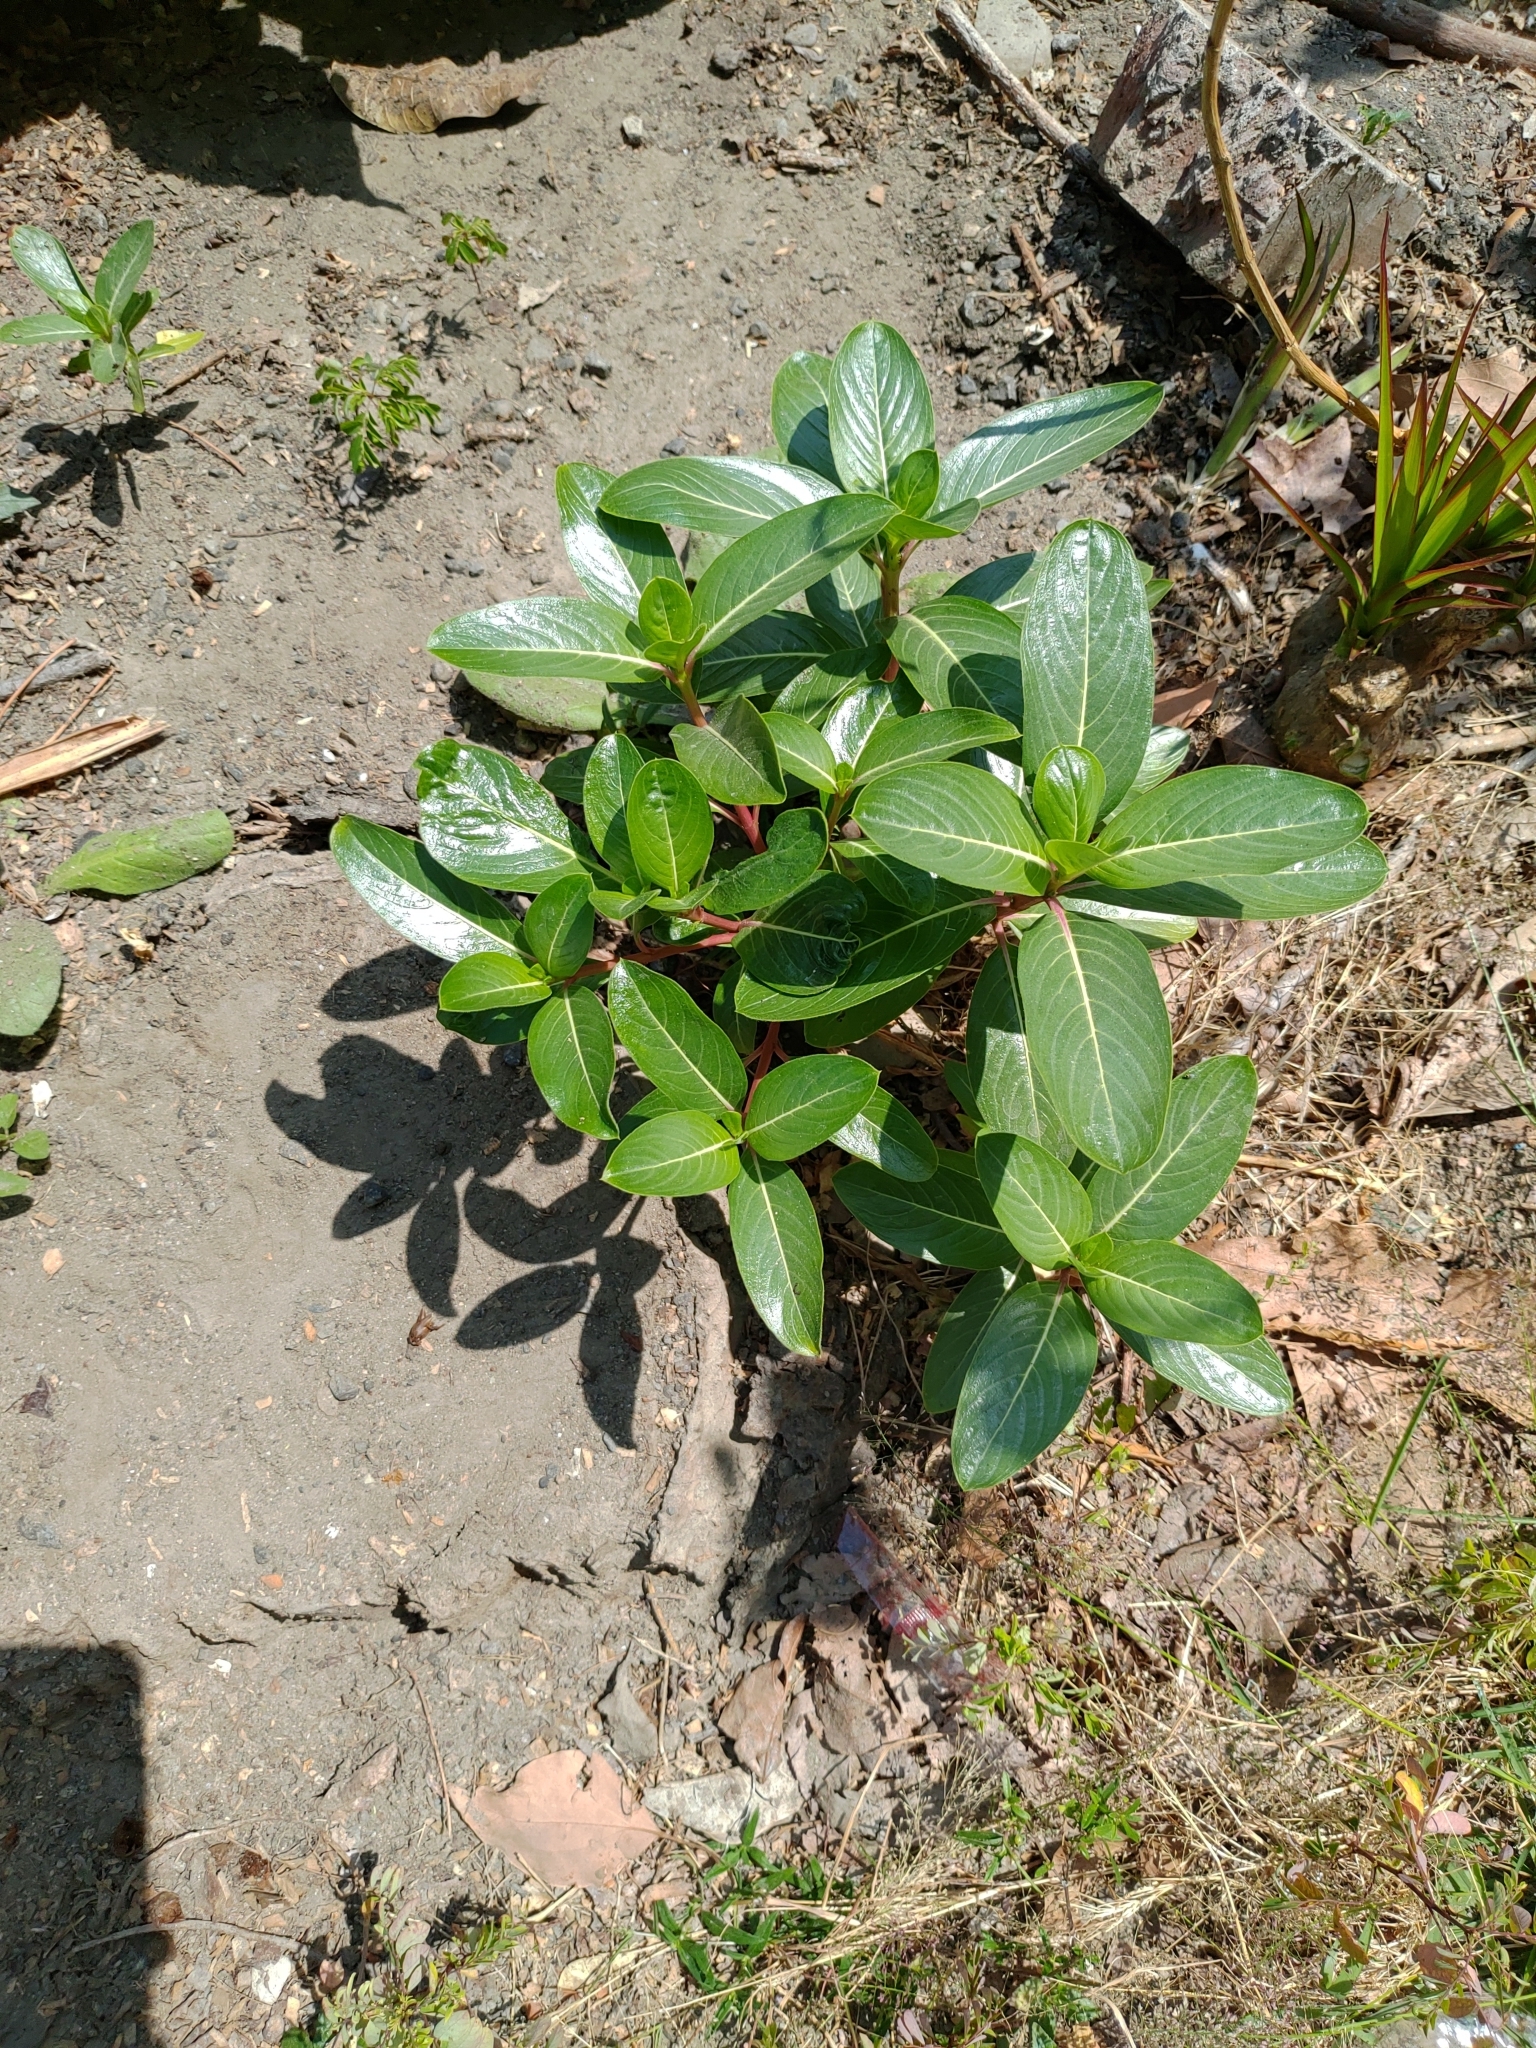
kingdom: Plantae
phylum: Tracheophyta
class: Magnoliopsida
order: Gentianales
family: Apocynaceae
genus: Catharanthus
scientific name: Catharanthus roseus
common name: Madagascar periwinkle
